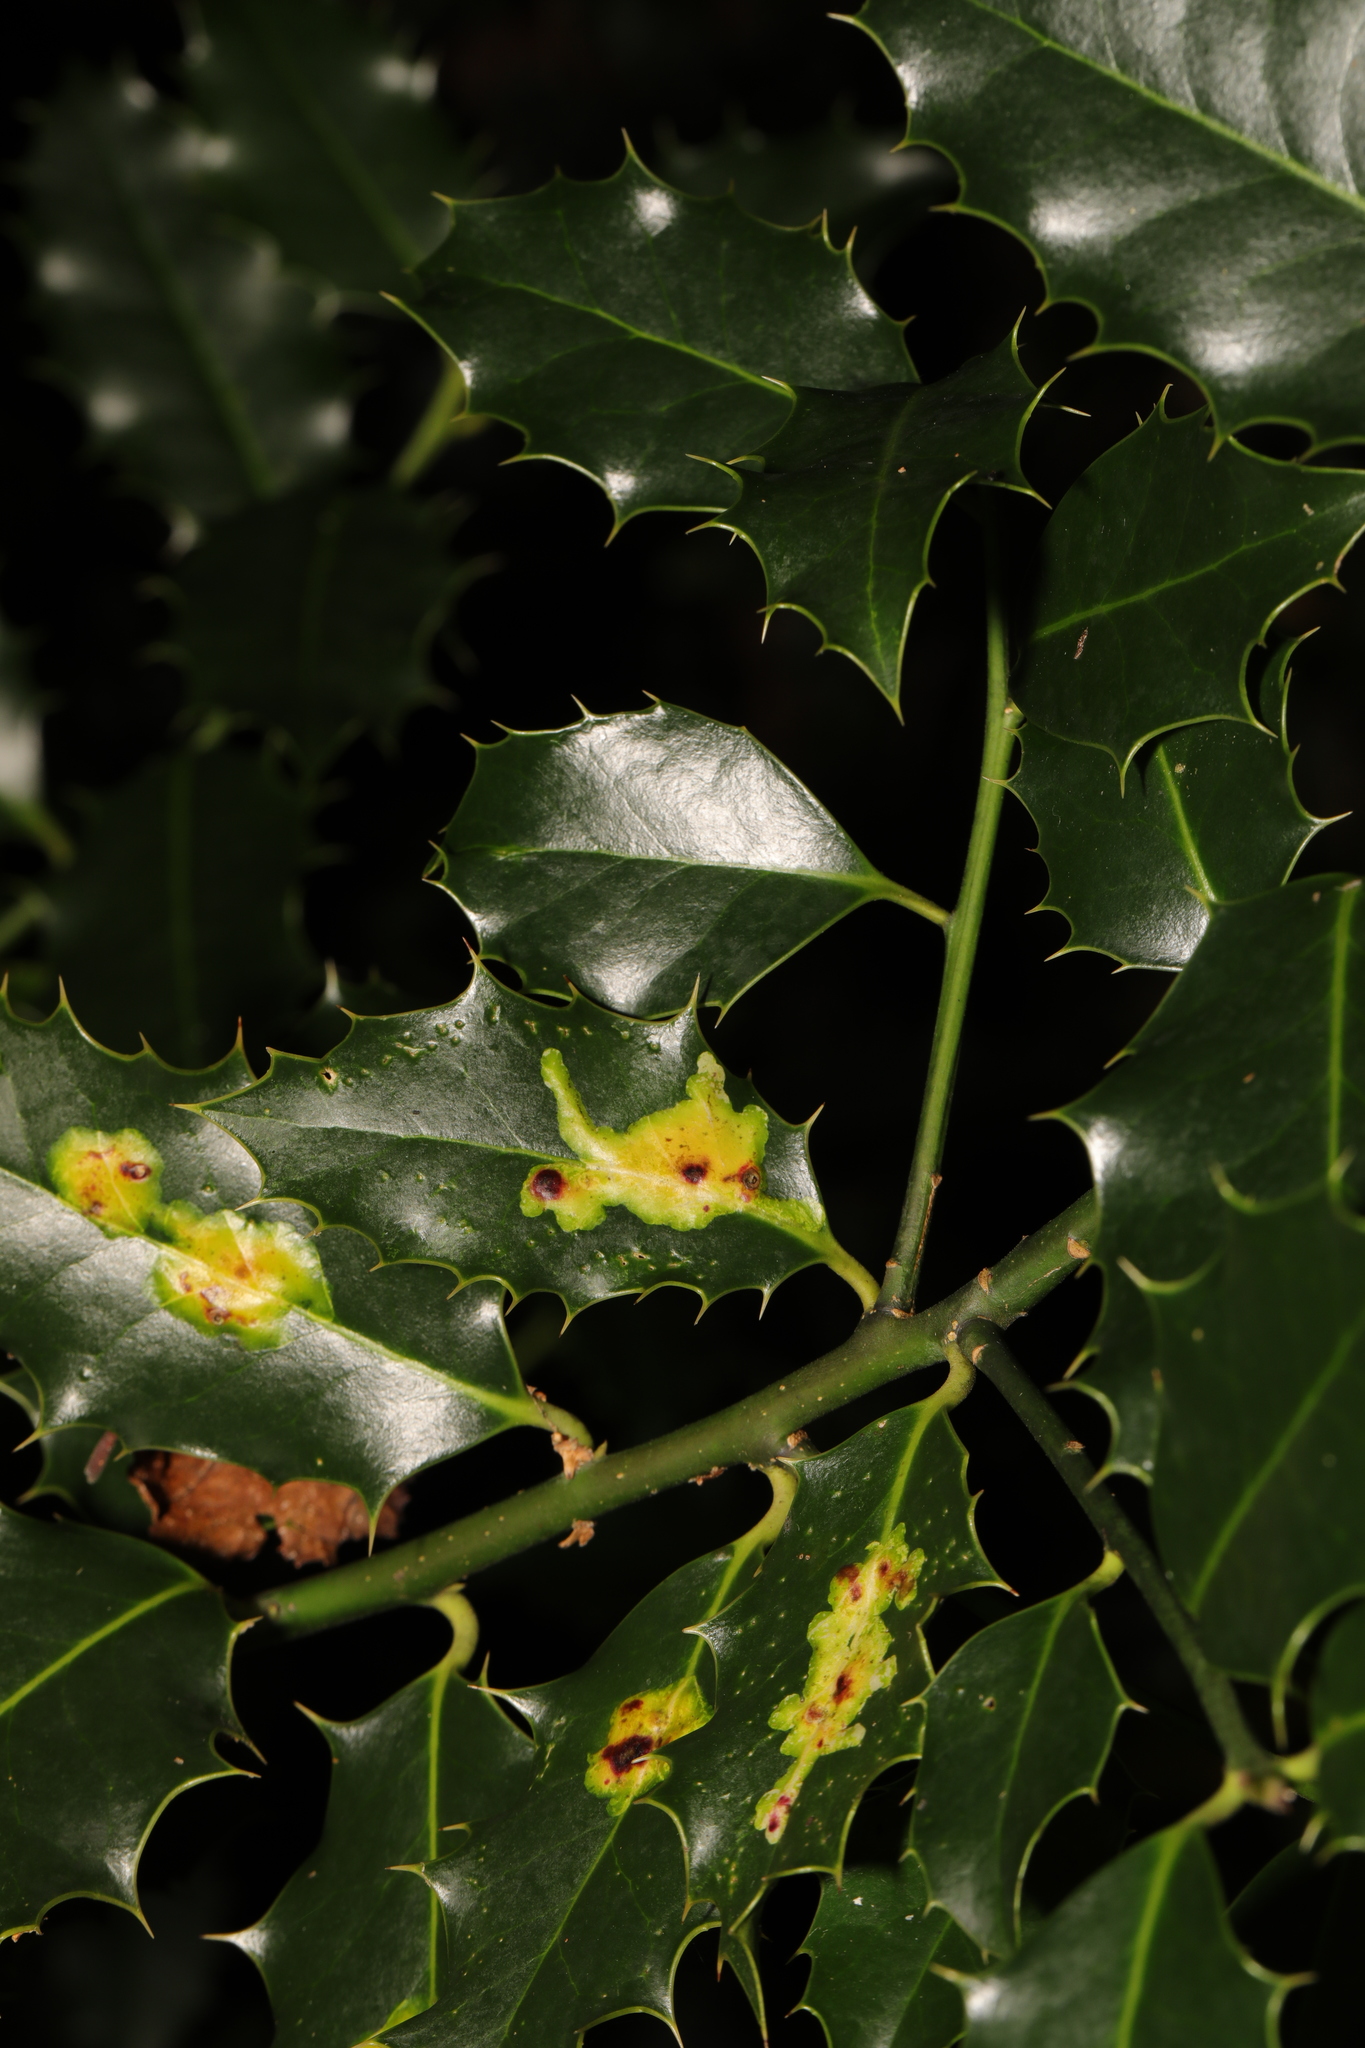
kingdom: Plantae
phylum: Tracheophyta
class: Magnoliopsida
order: Aquifoliales
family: Aquifoliaceae
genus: Ilex
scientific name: Ilex aquifolium
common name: English holly
